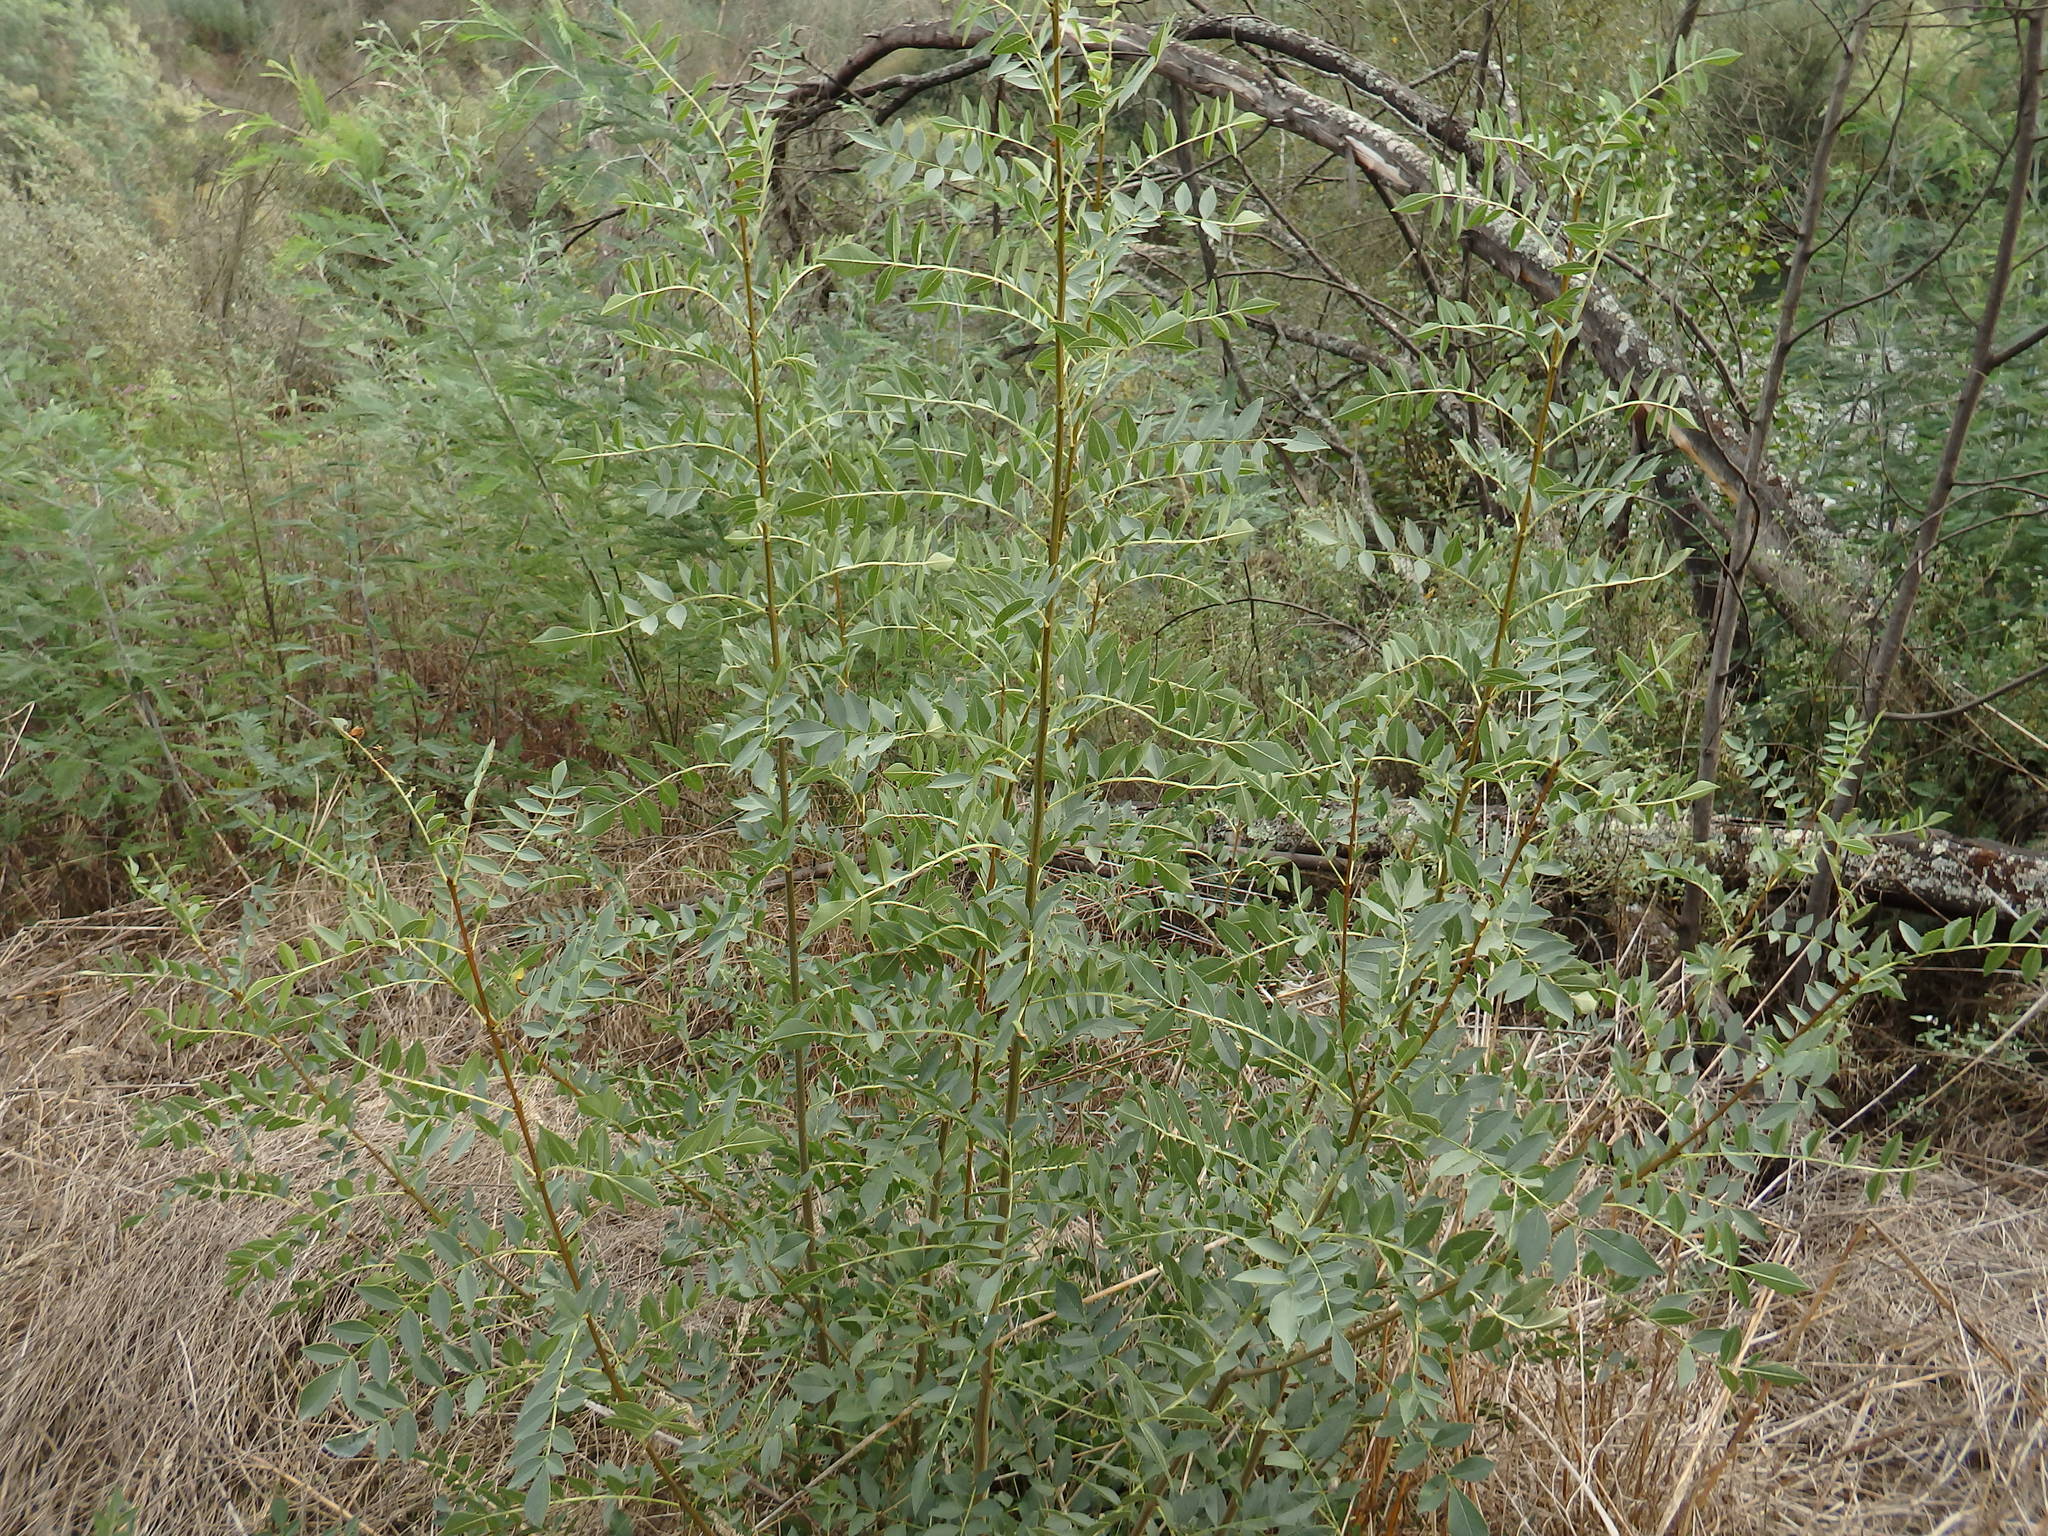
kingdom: Plantae
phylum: Tracheophyta
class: Magnoliopsida
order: Lamiales
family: Oleaceae
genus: Fraxinus
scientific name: Fraxinus angustifolia
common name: Narrow-leafed ash
